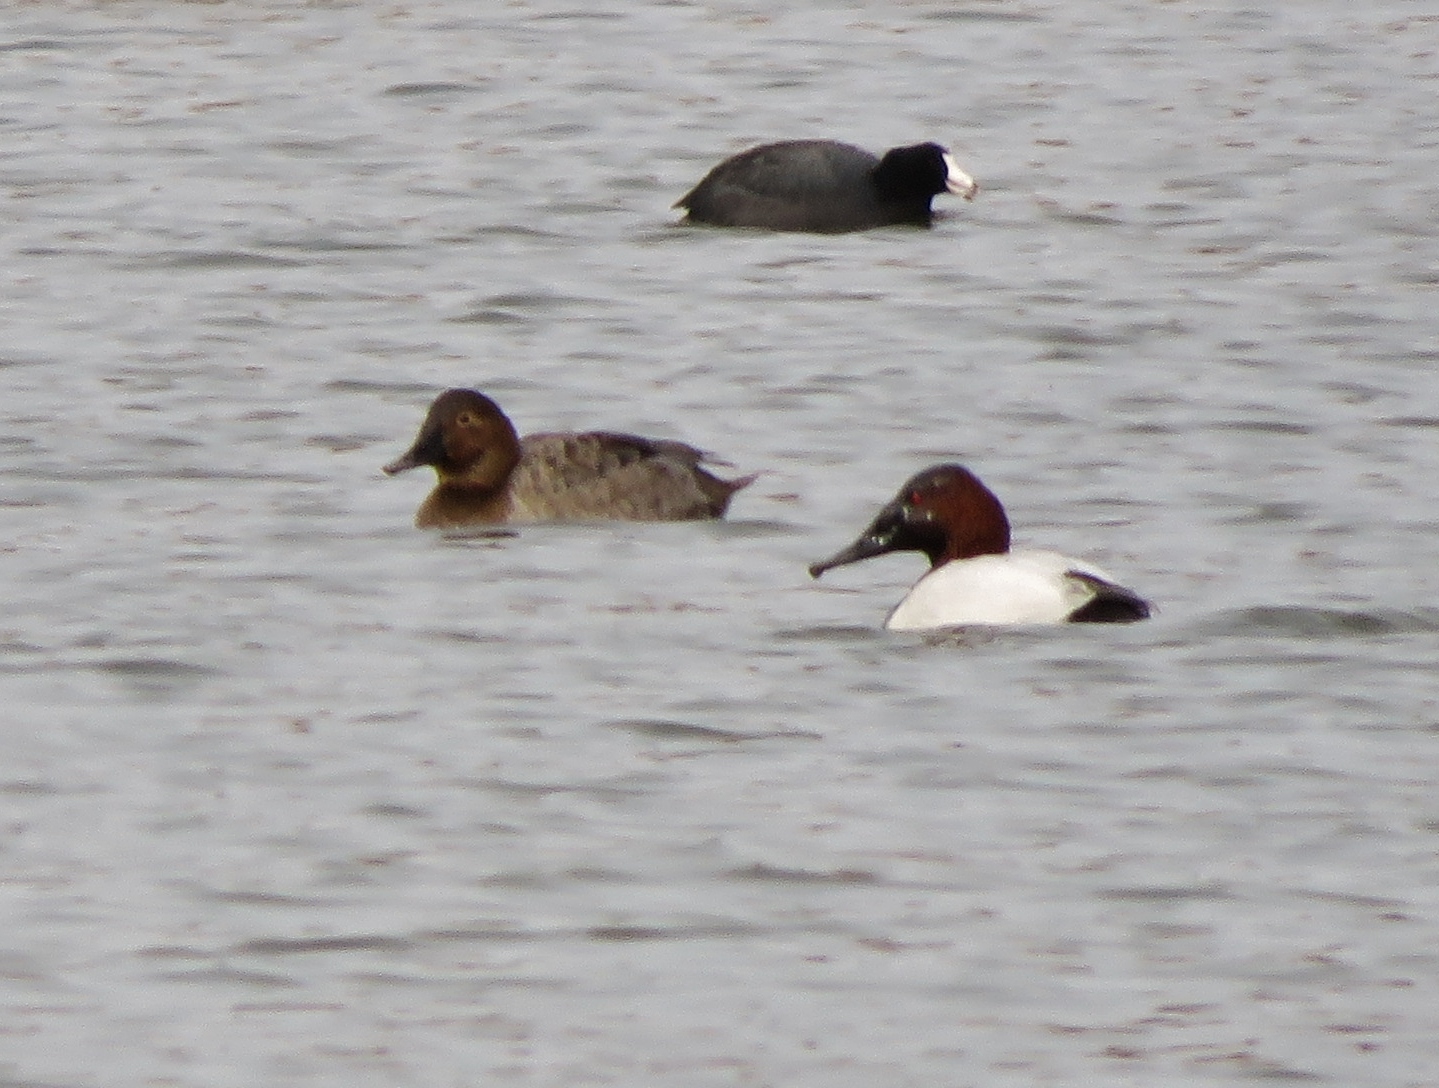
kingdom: Animalia
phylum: Chordata
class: Aves
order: Anseriformes
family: Anatidae
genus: Aythya
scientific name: Aythya valisineria
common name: Canvasback
